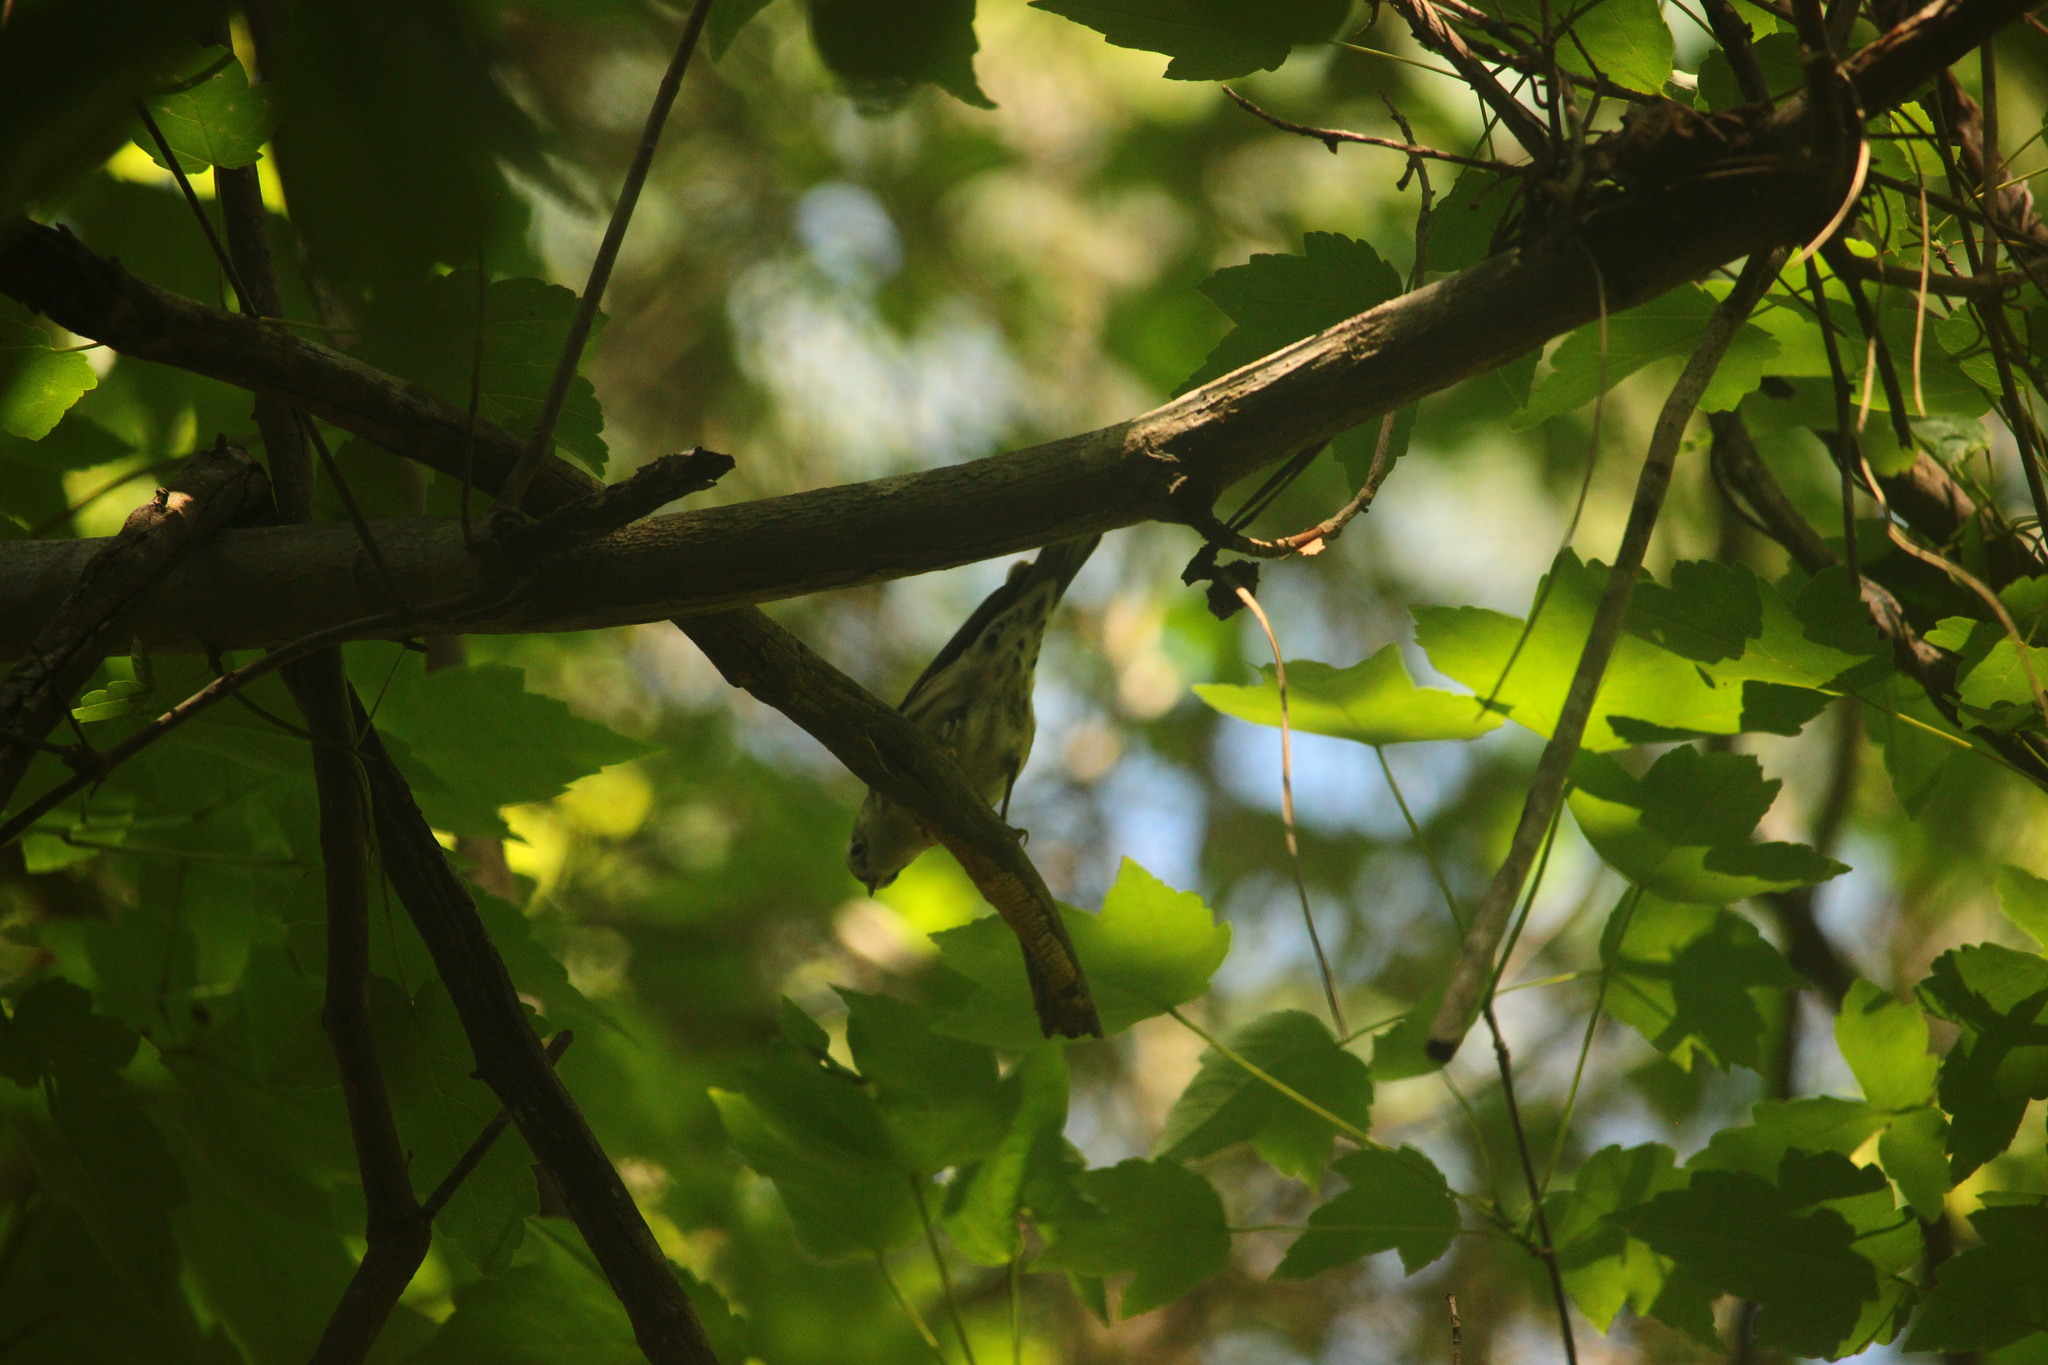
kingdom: Animalia
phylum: Chordata
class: Aves
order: Passeriformes
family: Parulidae
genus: Mniotilta
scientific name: Mniotilta varia
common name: Black-and-white warbler
